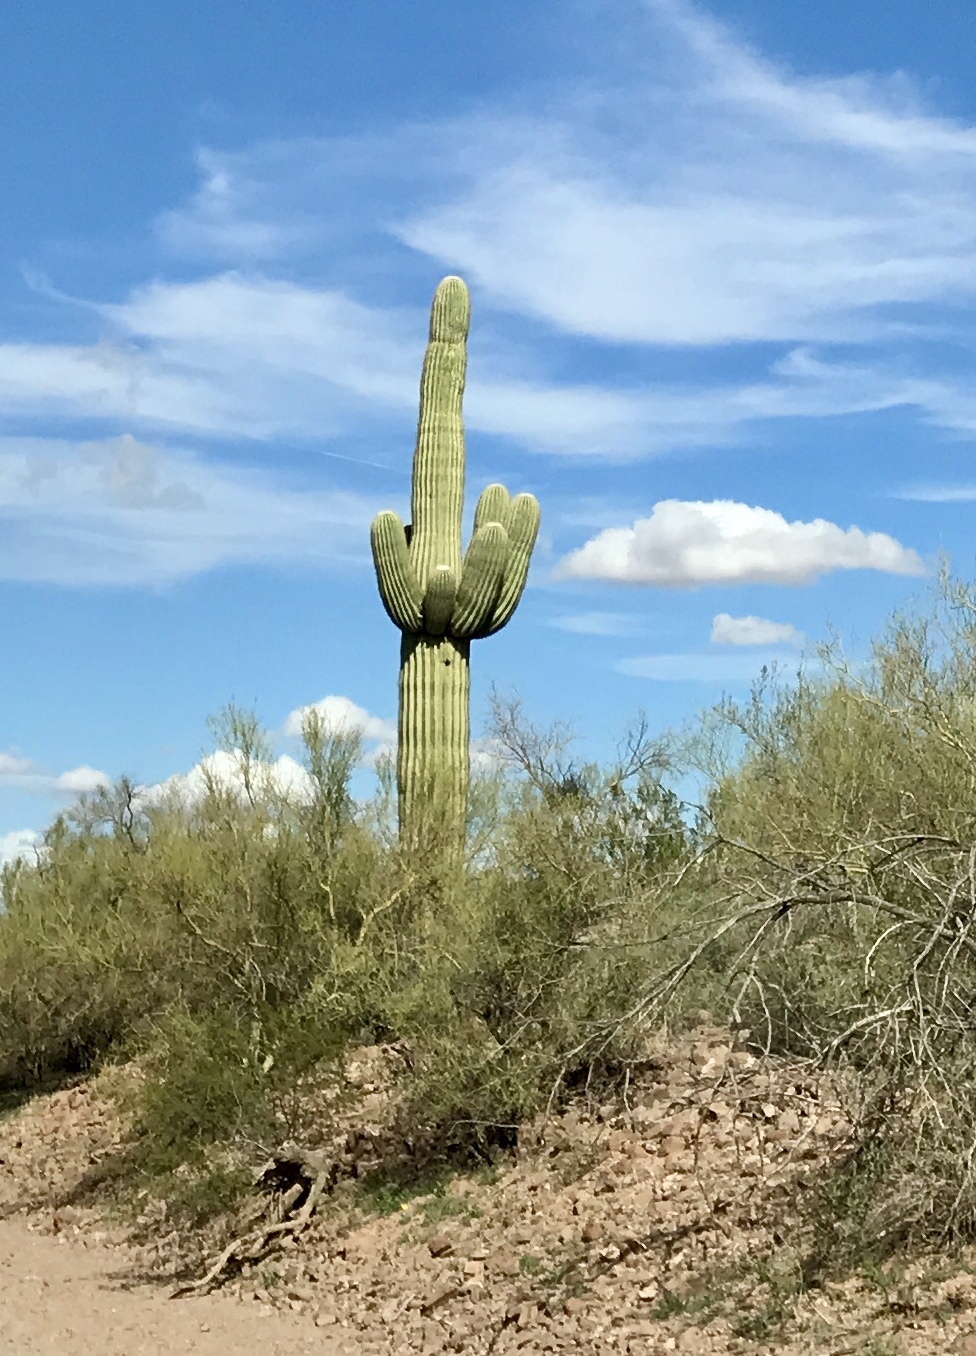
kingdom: Plantae
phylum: Tracheophyta
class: Magnoliopsida
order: Caryophyllales
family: Cactaceae
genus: Carnegiea
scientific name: Carnegiea gigantea
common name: Saguaro
